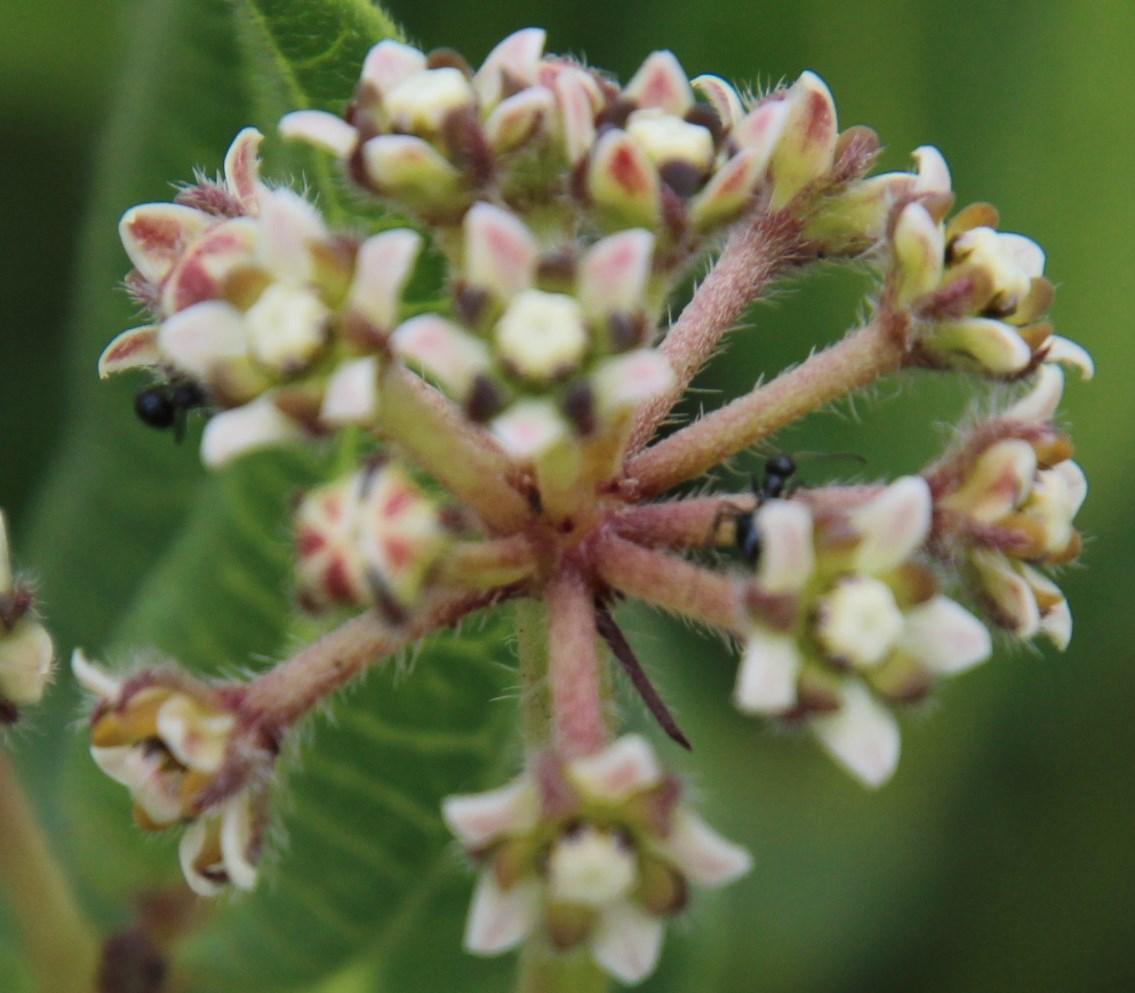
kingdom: Animalia
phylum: Arthropoda
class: Insecta
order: Hymenoptera
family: Formicidae
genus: Lepisiota
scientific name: Lepisiota capensis
